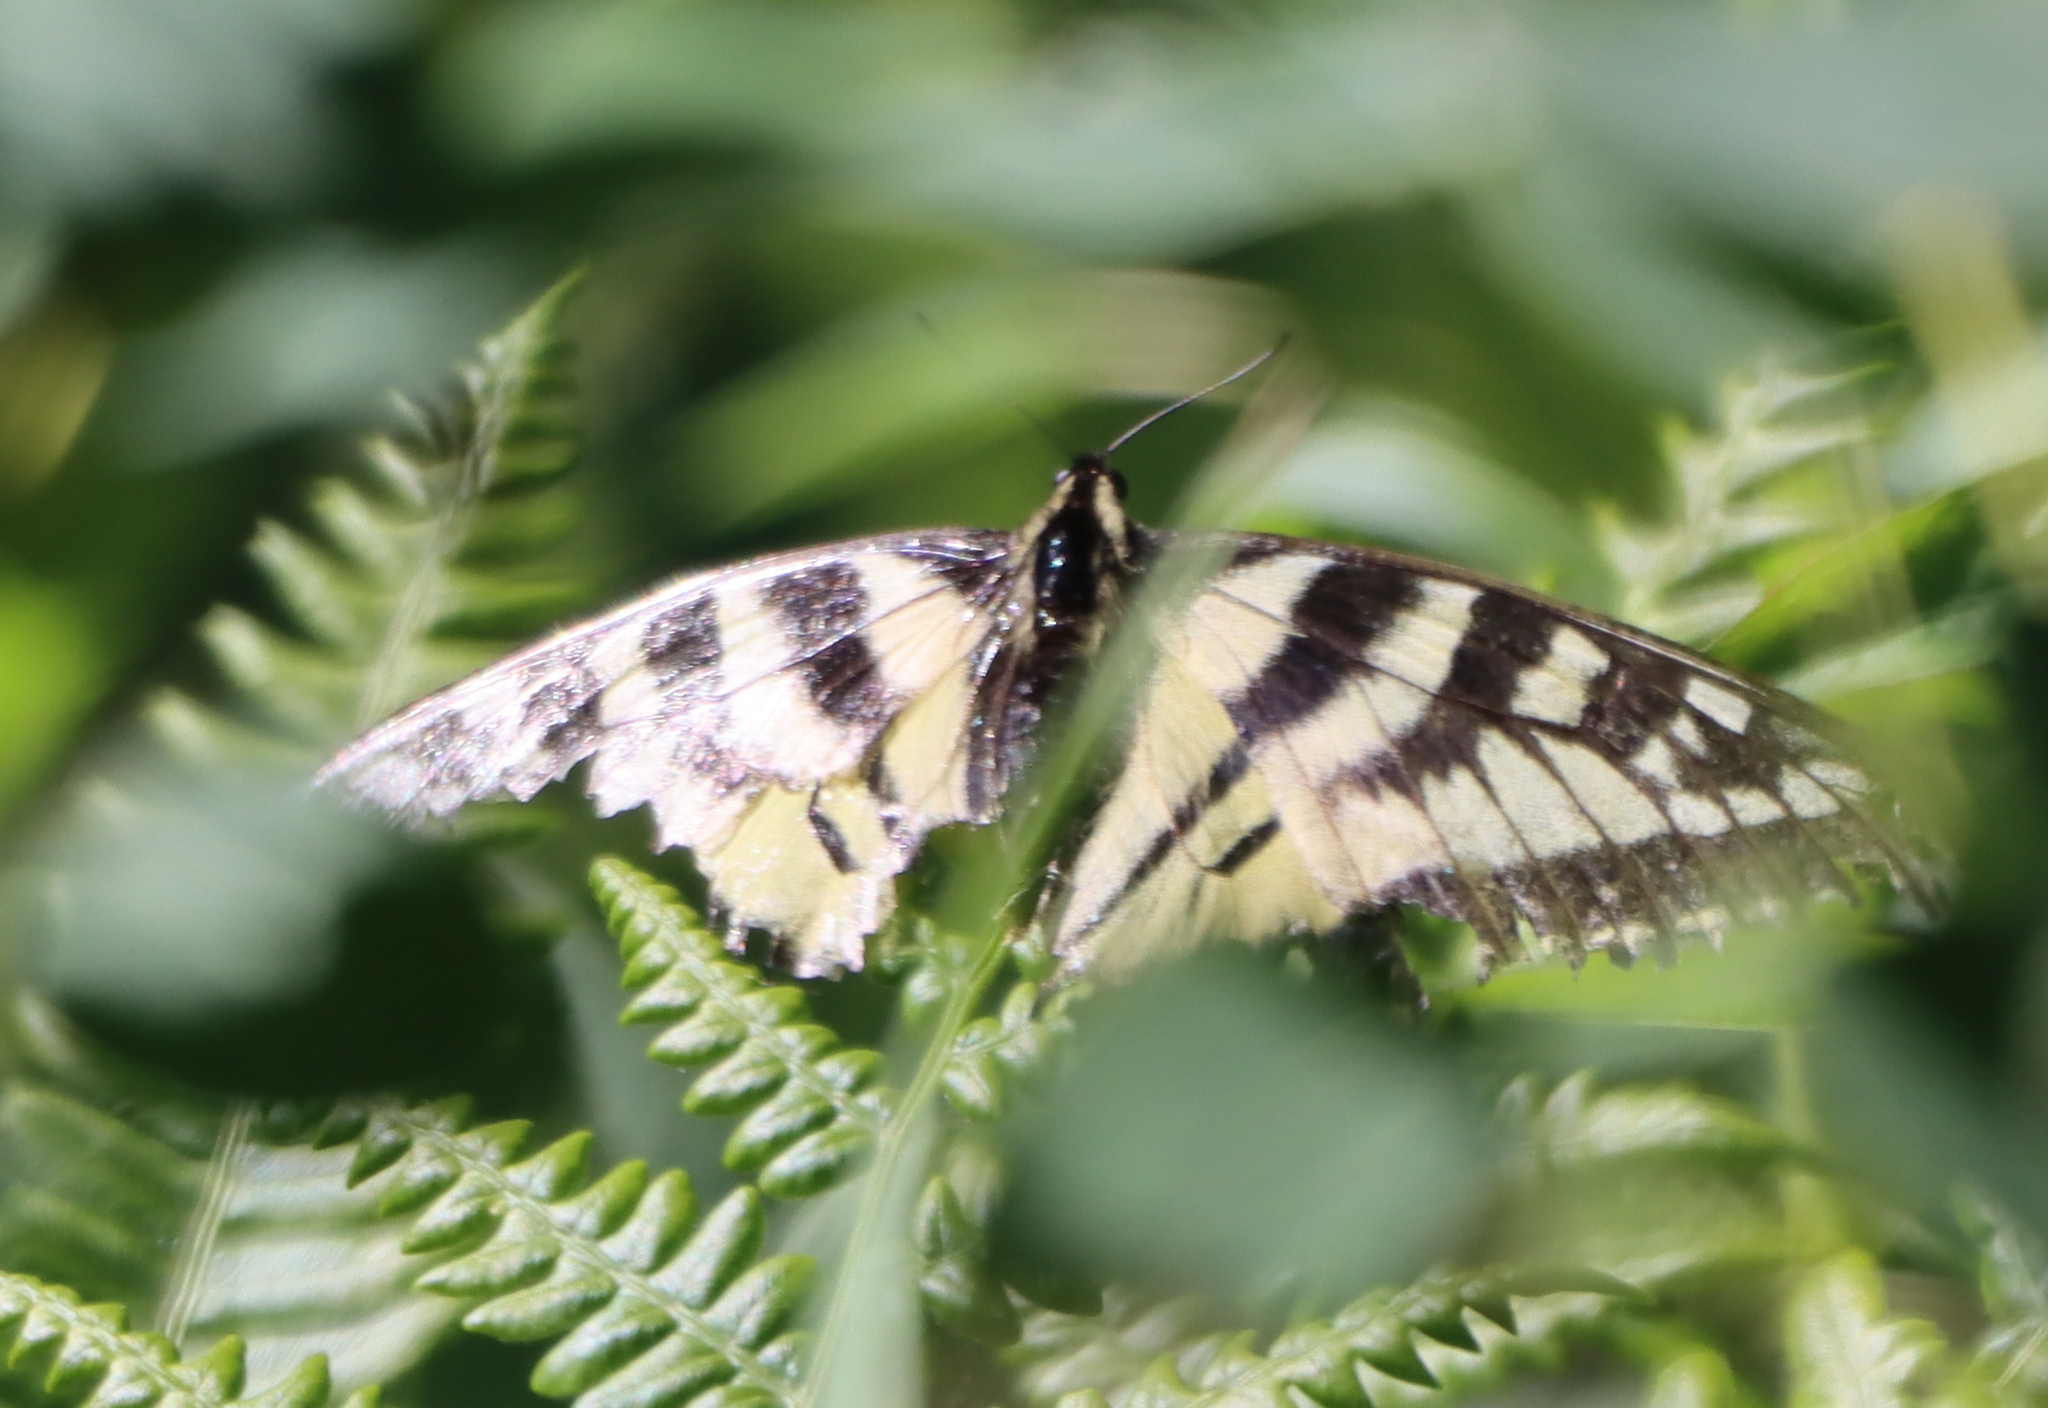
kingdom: Animalia
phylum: Arthropoda
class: Insecta
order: Lepidoptera
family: Papilionidae
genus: Papilio
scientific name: Papilio canadensis
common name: Canadian tiger swallowtail
